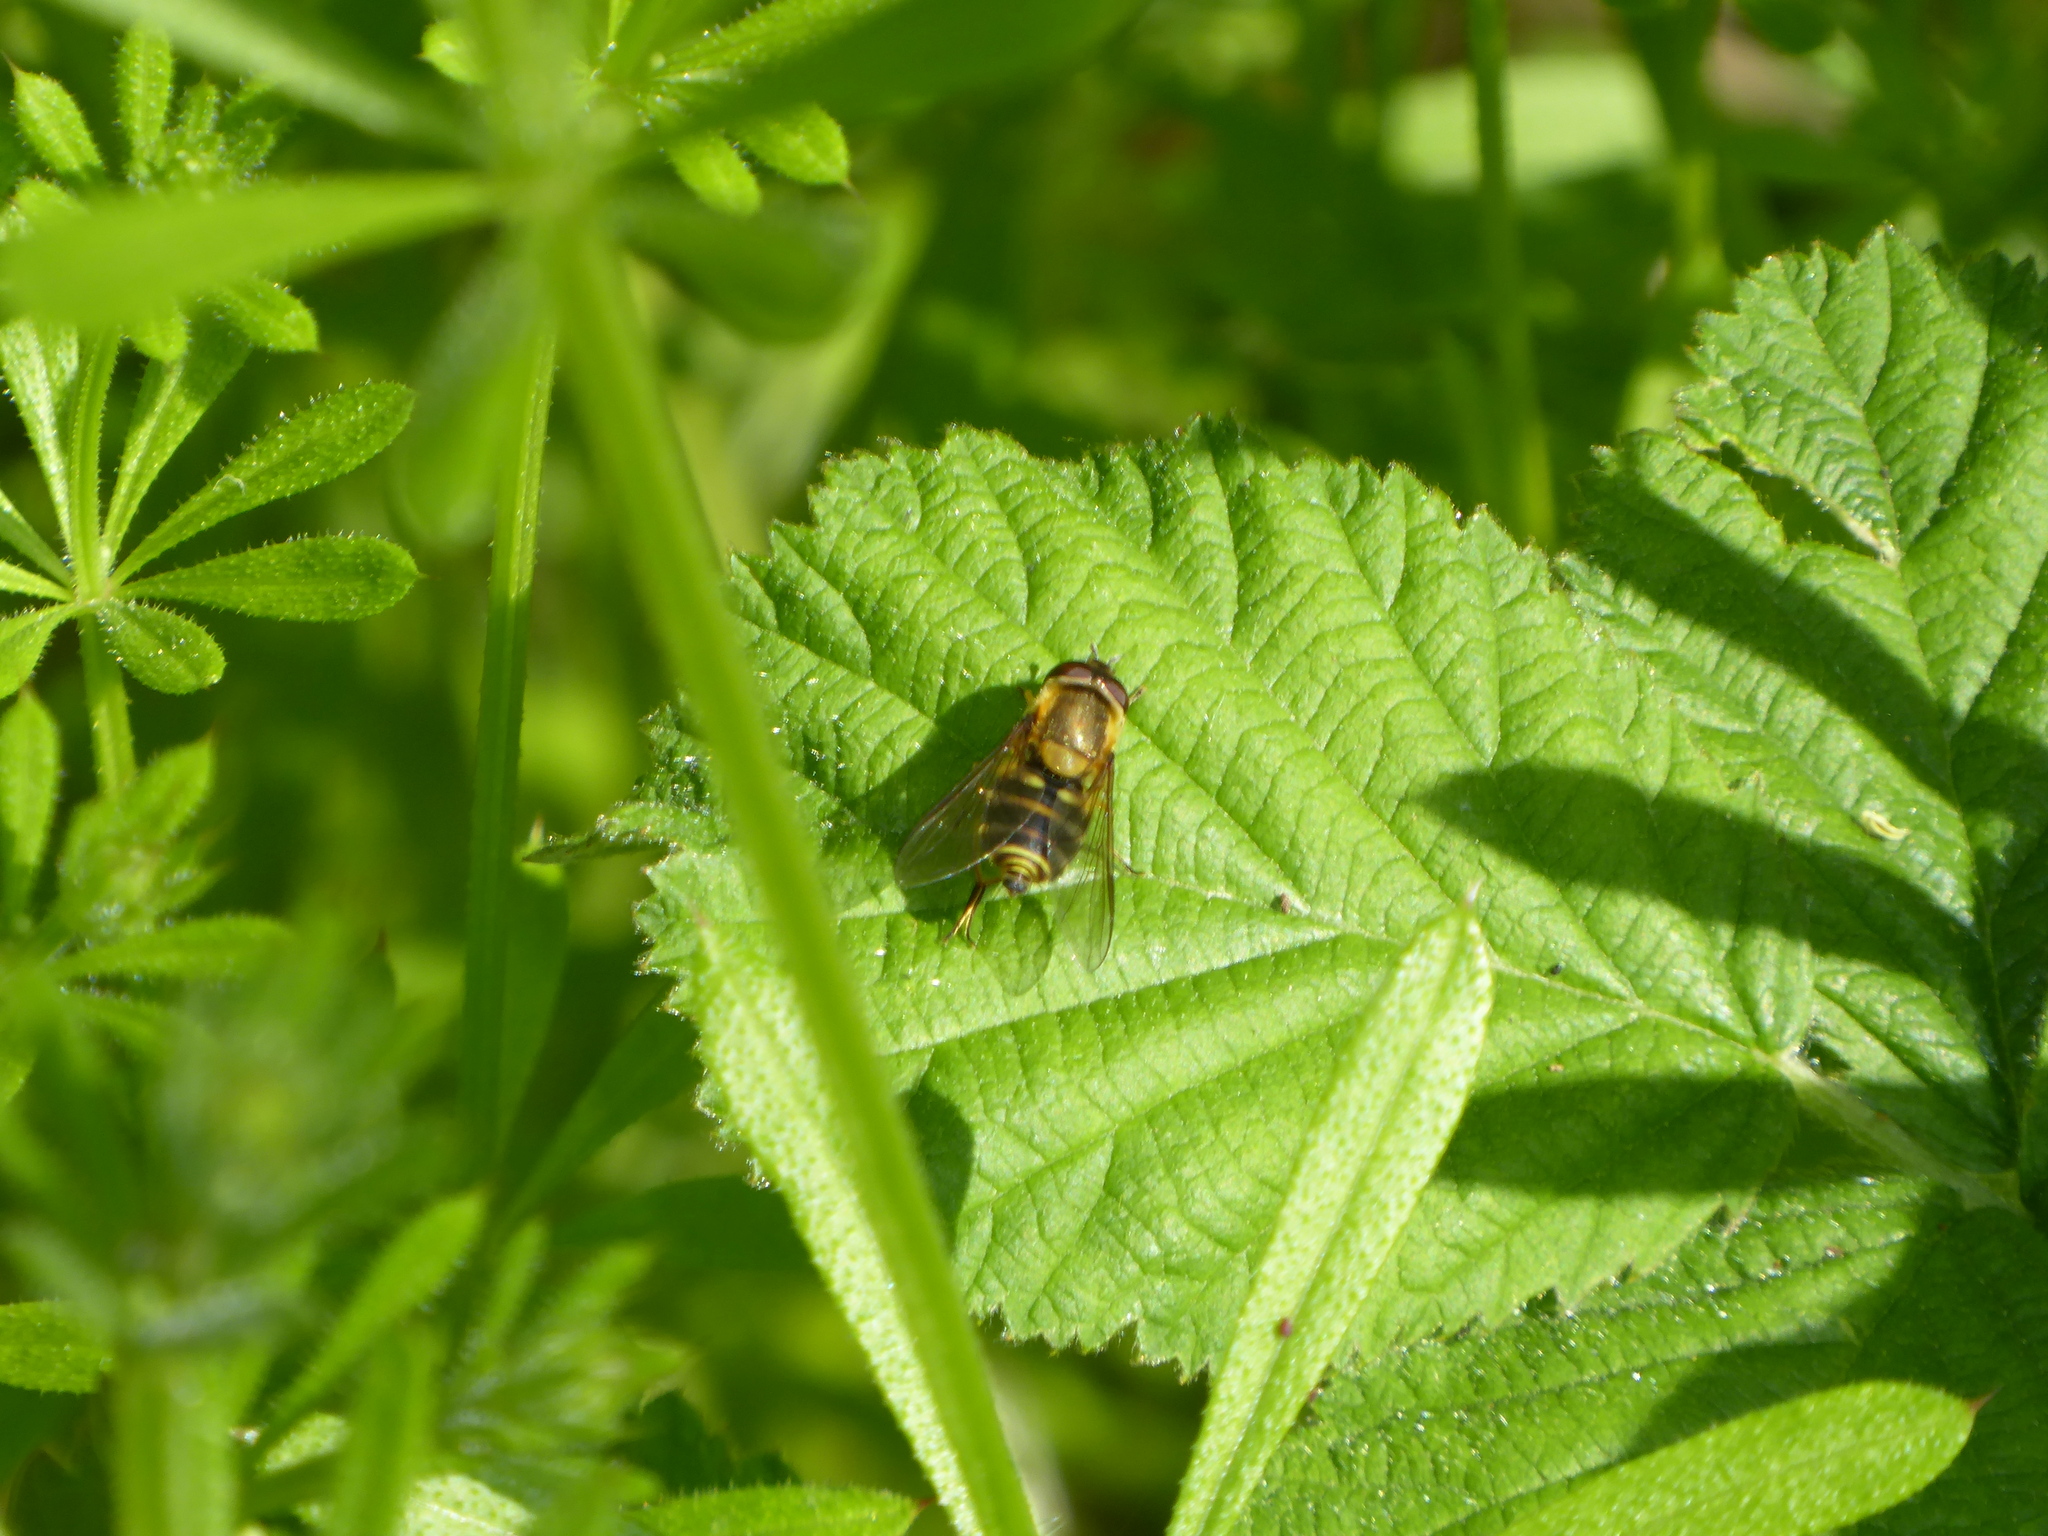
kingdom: Animalia
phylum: Arthropoda
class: Insecta
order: Diptera
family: Syrphidae
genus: Syrphus
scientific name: Syrphus
